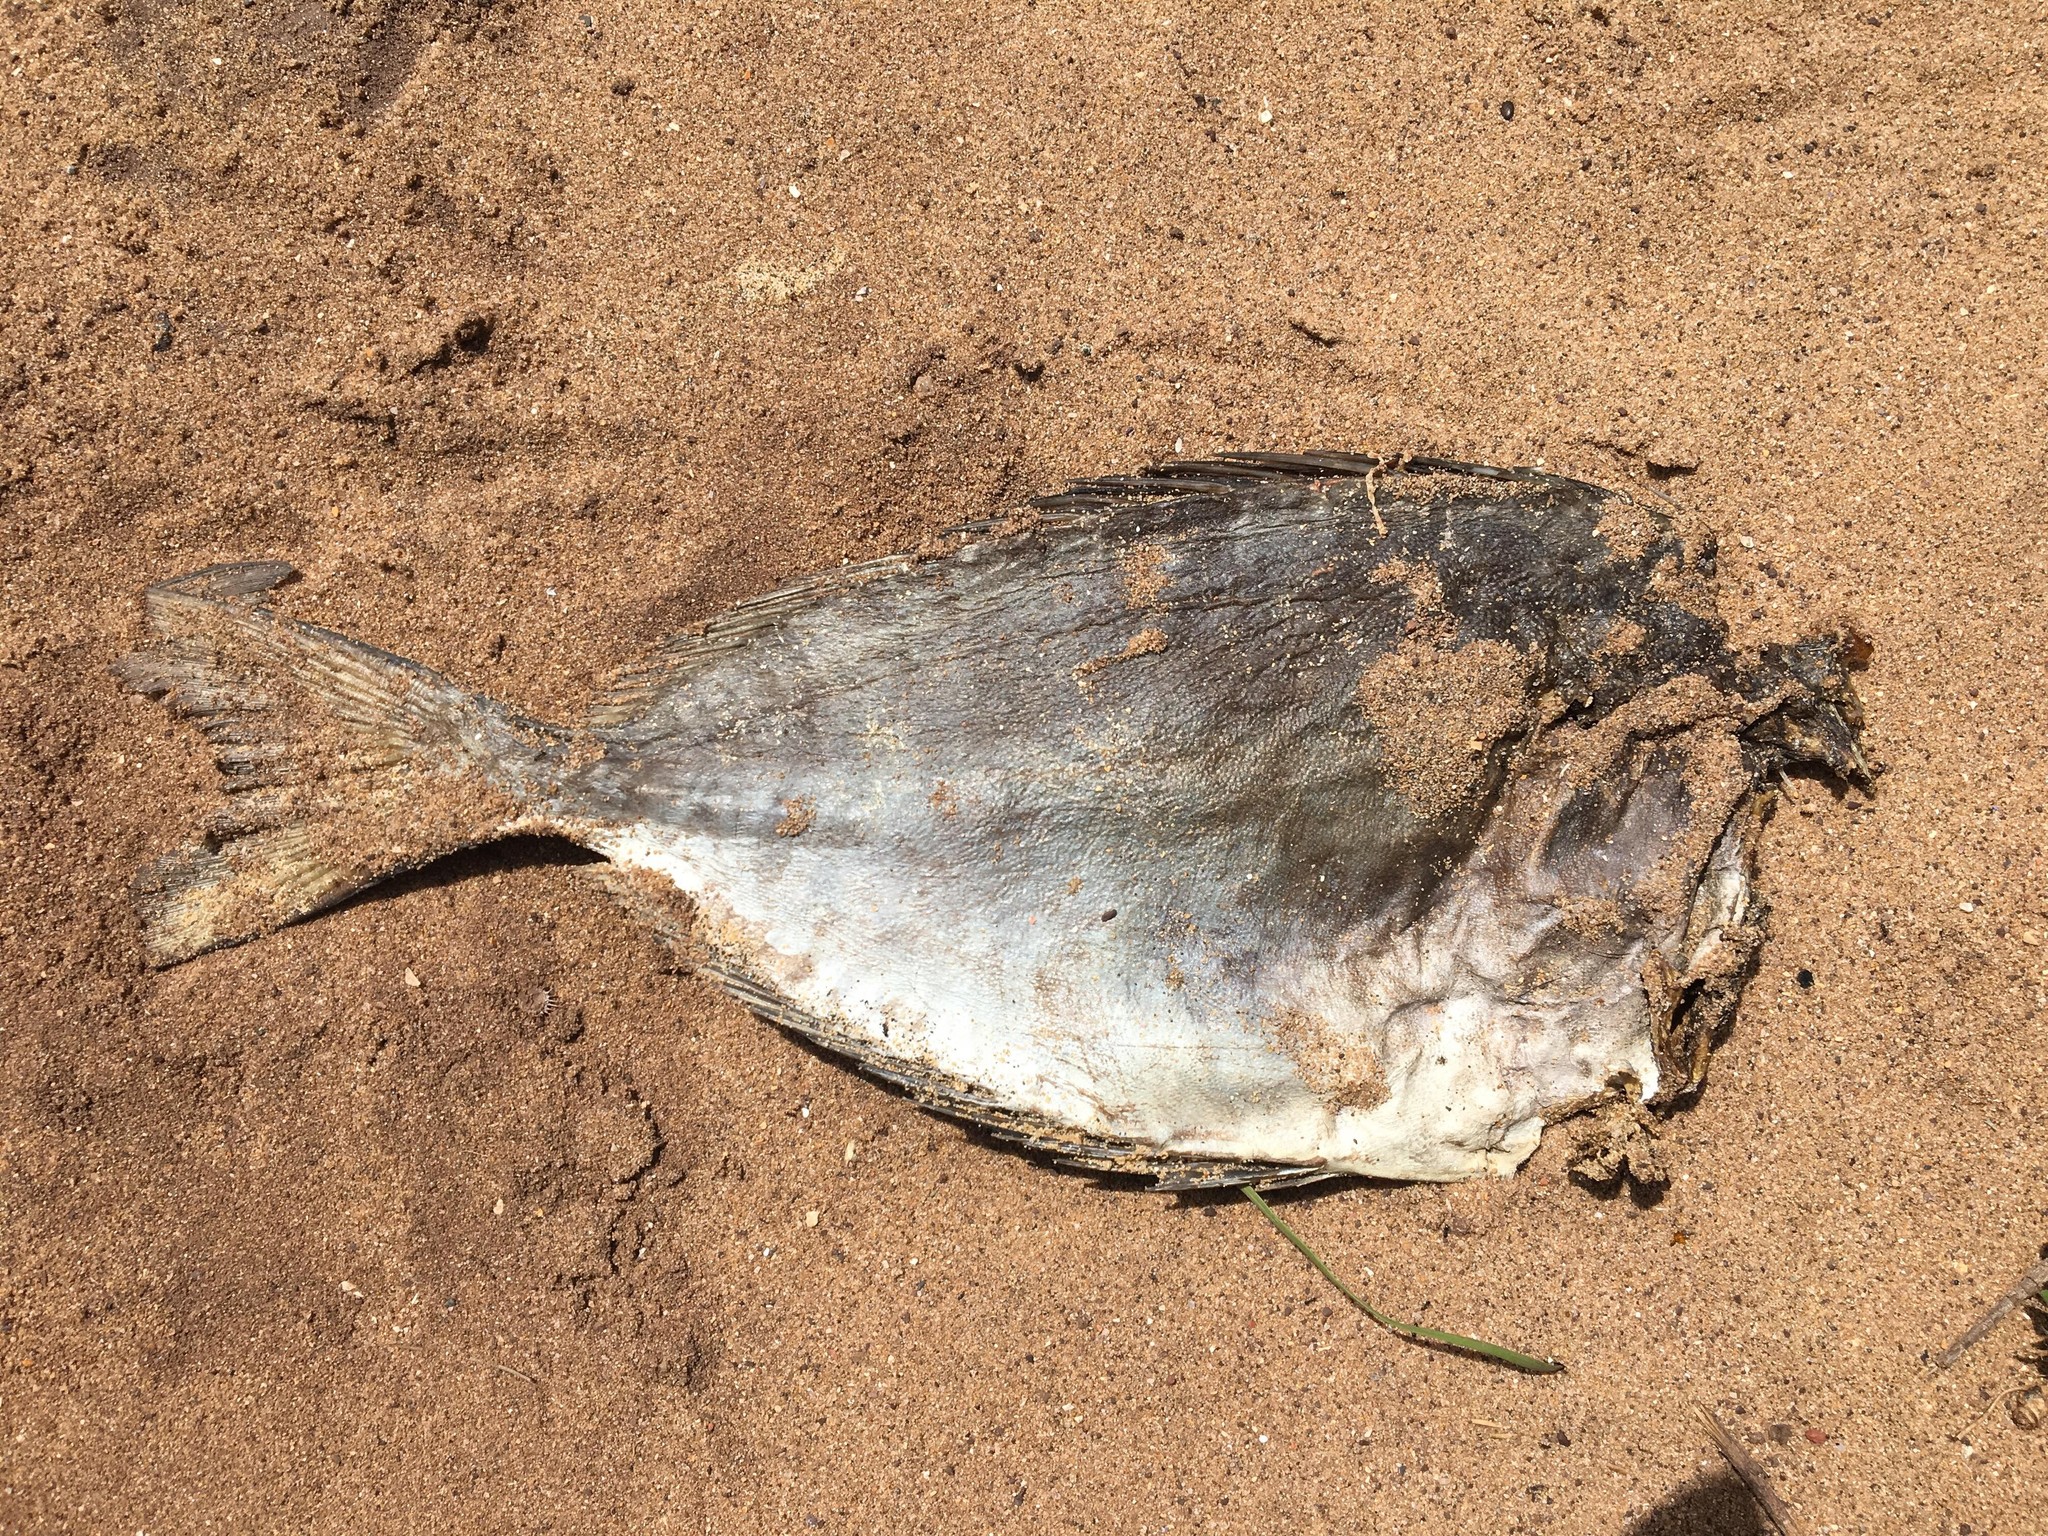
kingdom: Animalia
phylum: Chordata
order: Perciformes
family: Siganidae
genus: Siganus
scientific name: Siganus fuscescens
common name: Dusky rabbitfish
